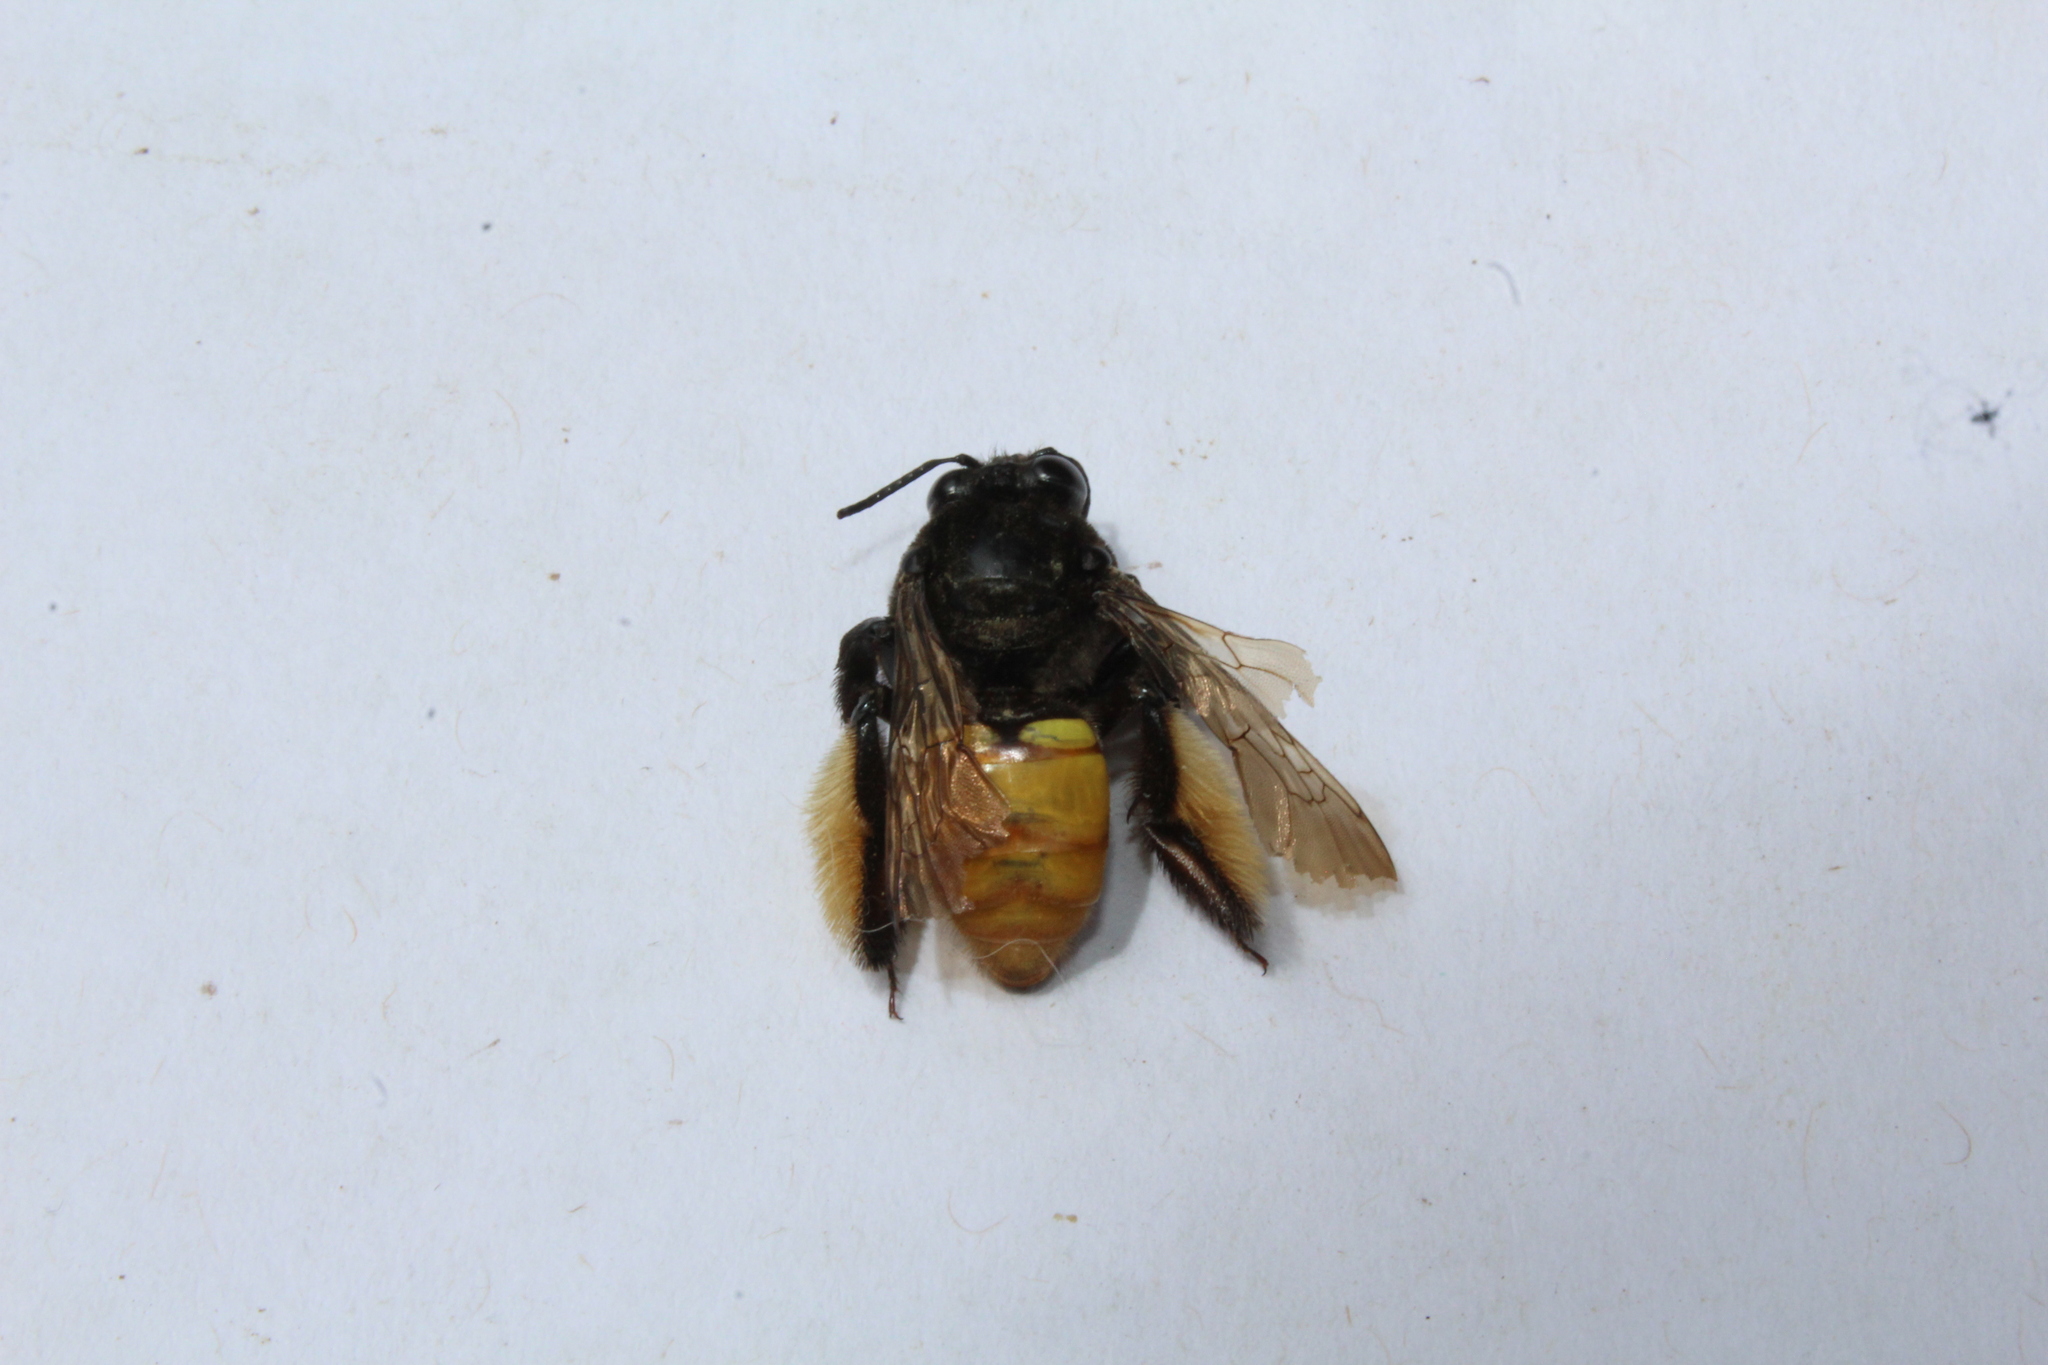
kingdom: Animalia
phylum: Arthropoda
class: Insecta
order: Hymenoptera
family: Apidae
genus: Epicharis
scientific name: Epicharis elegans
